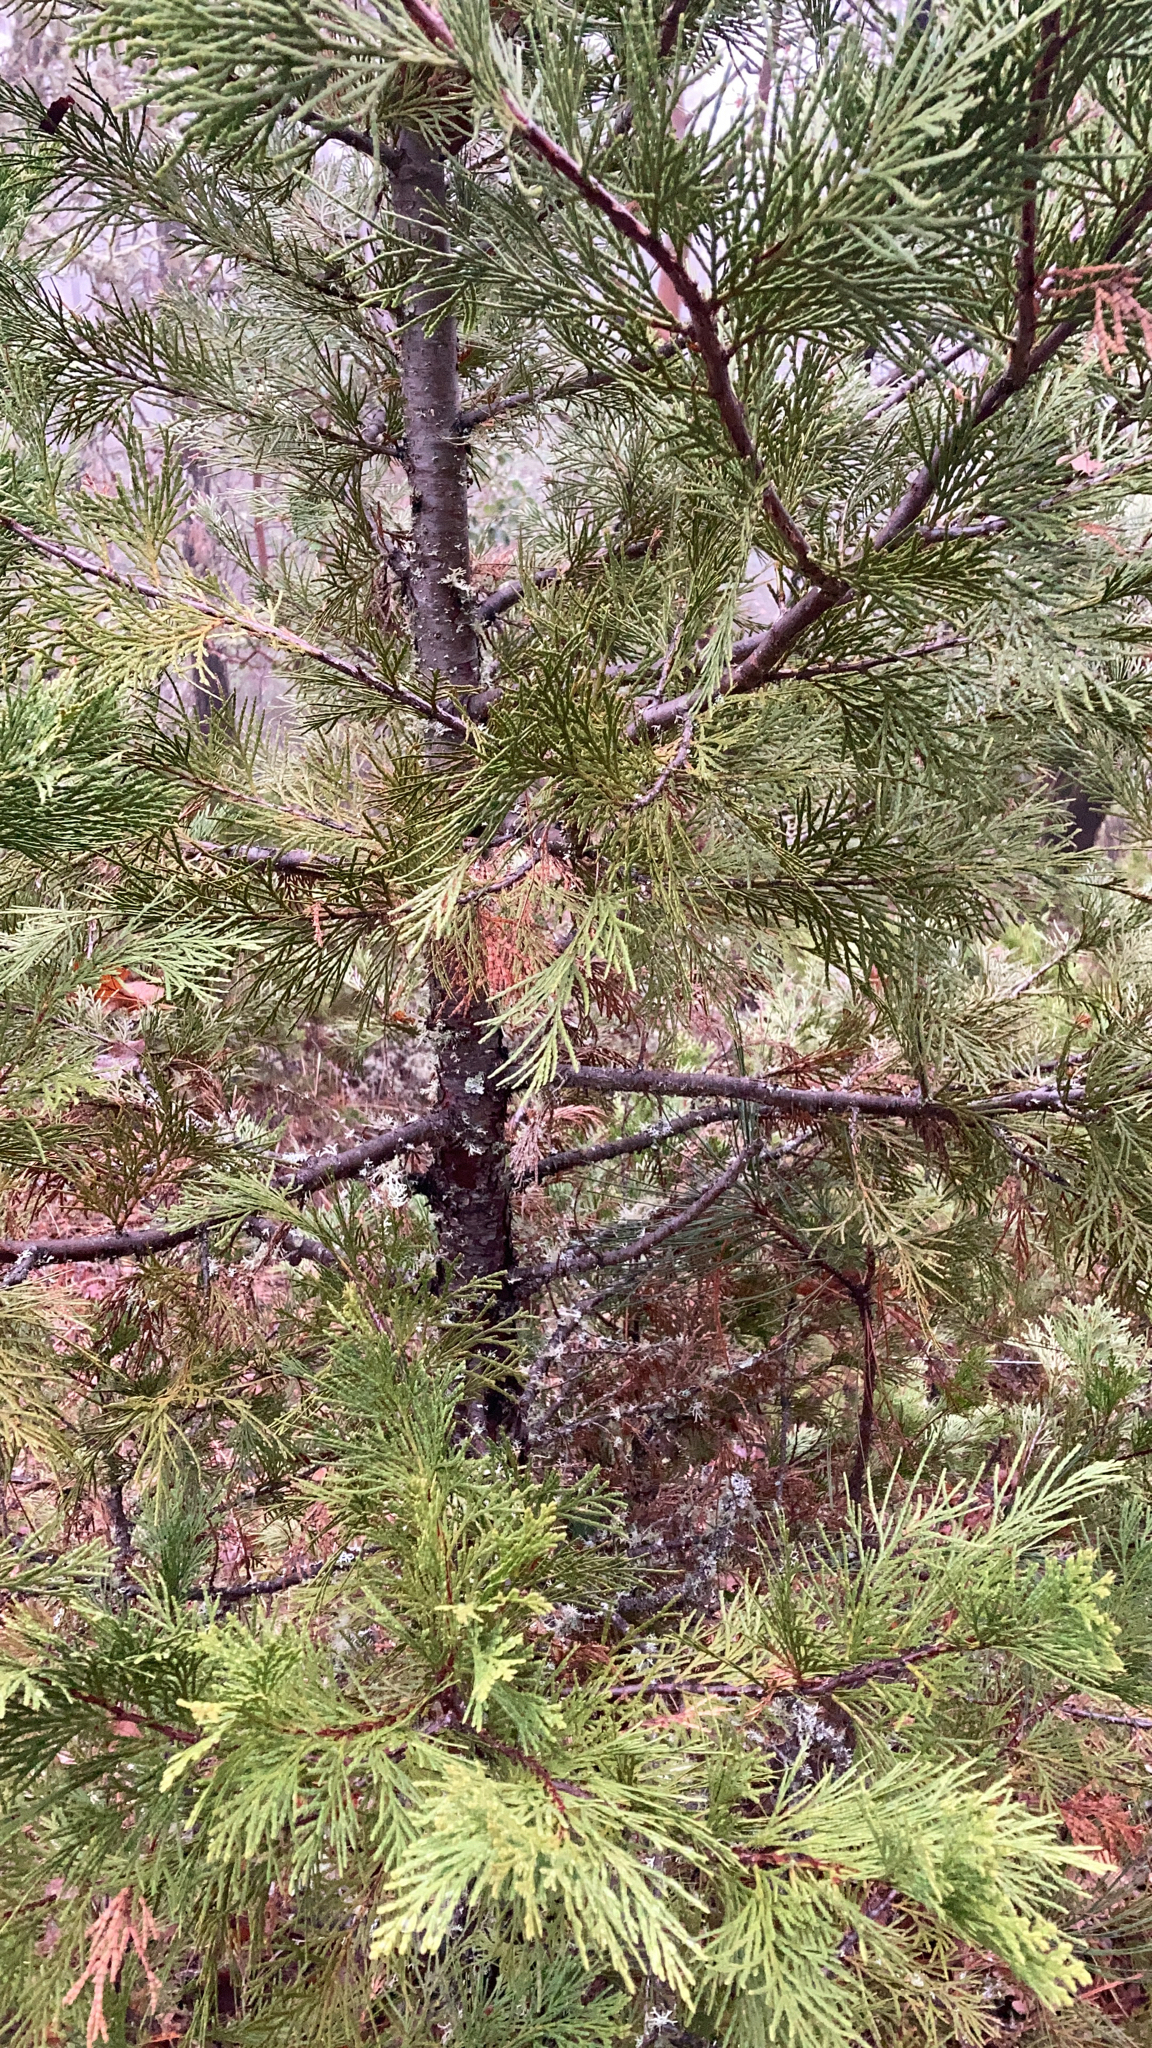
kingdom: Plantae
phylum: Tracheophyta
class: Pinopsida
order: Pinales
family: Cupressaceae
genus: Calocedrus
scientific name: Calocedrus decurrens
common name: Californian incense-cedar
